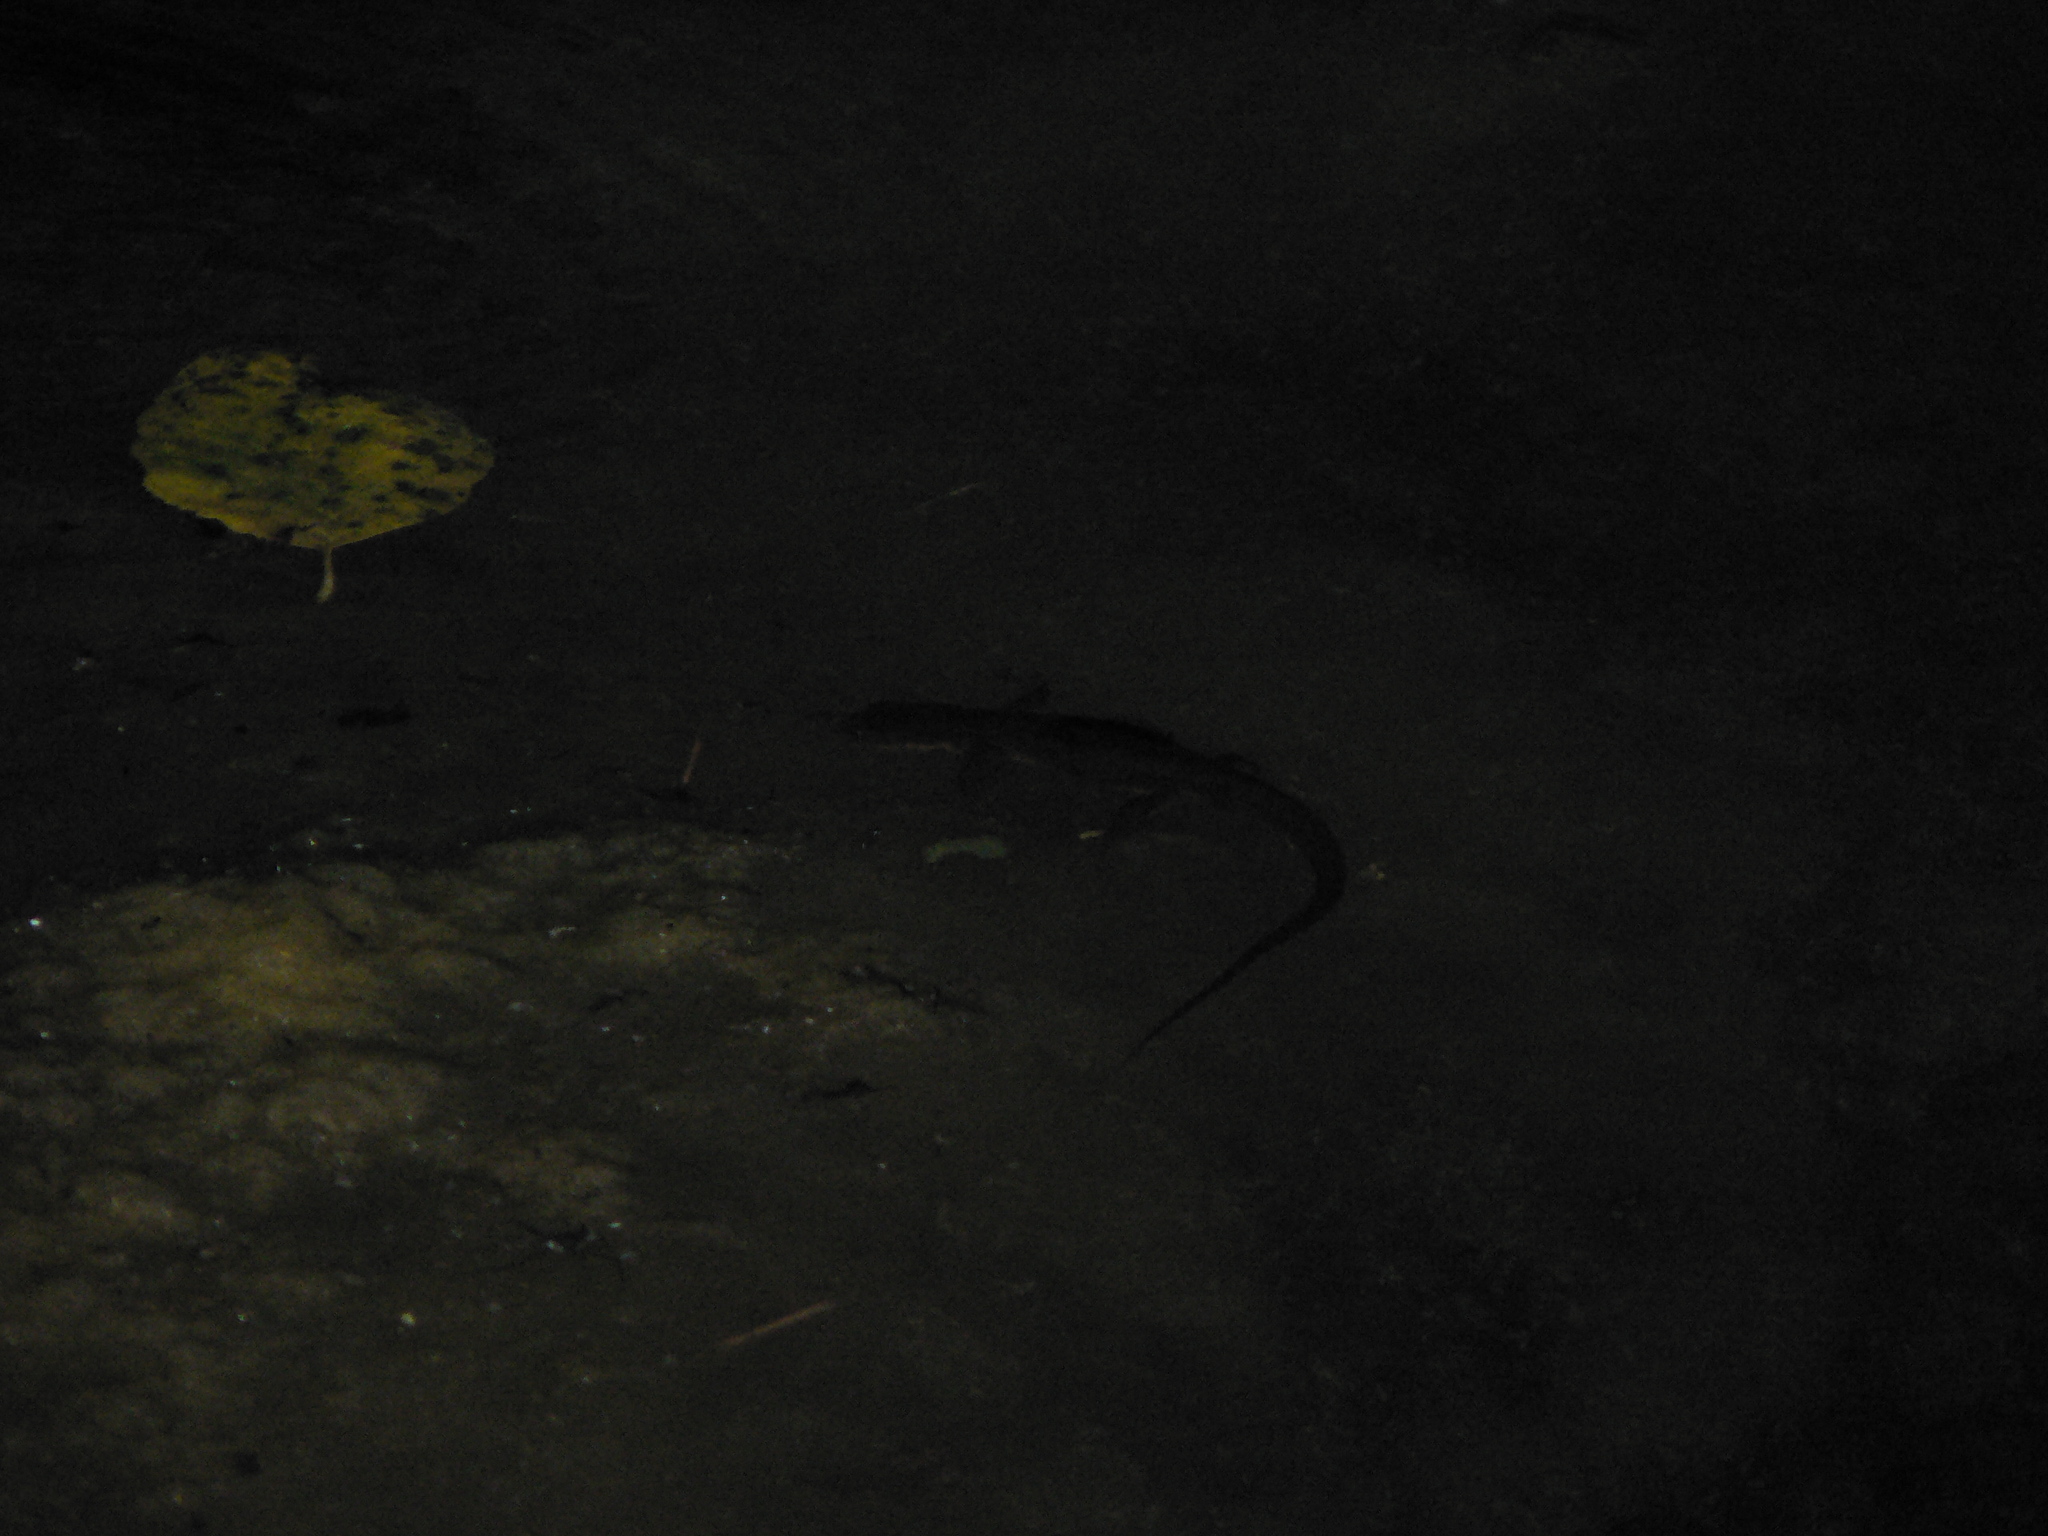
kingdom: Animalia
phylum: Chordata
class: Amphibia
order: Caudata
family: Salamandridae
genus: Taricha
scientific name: Taricha granulosa
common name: Roughskin newt
